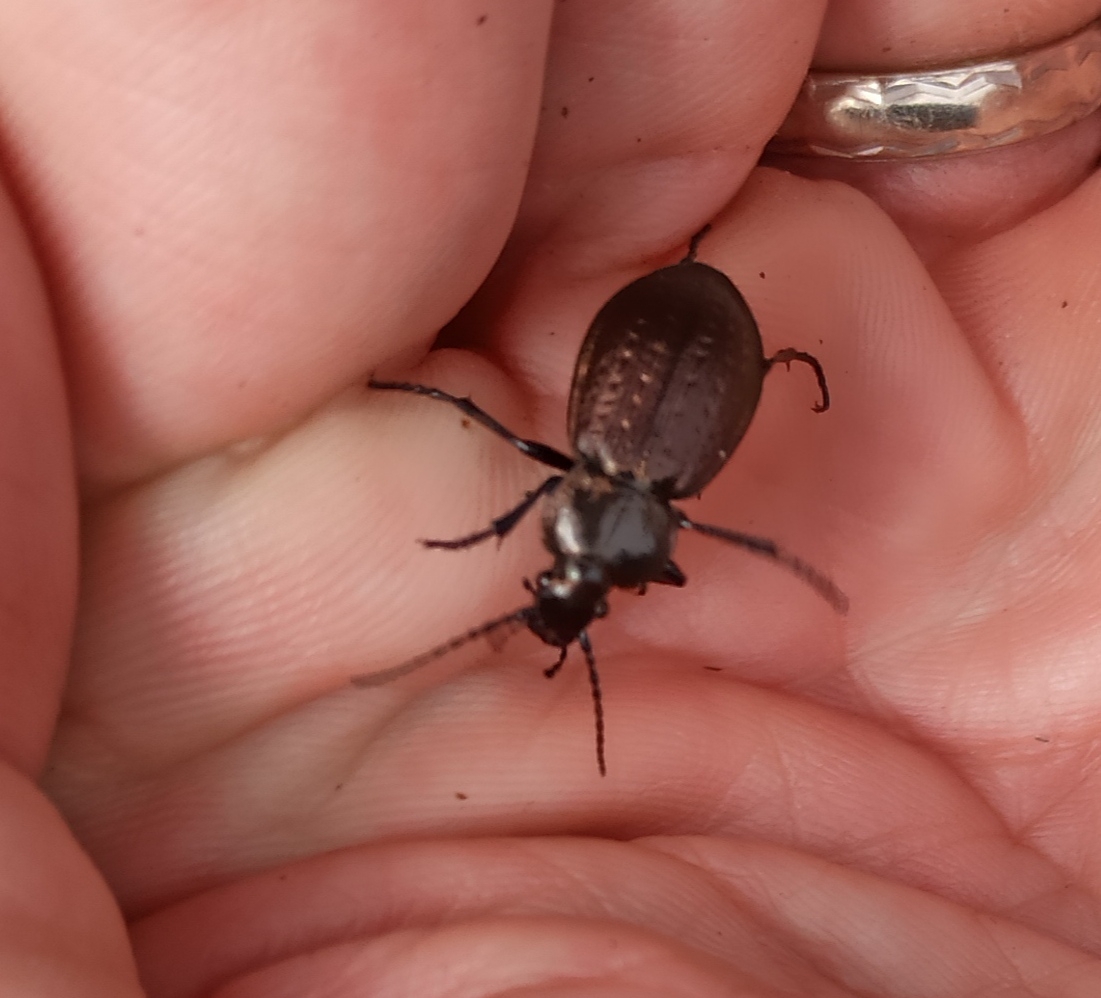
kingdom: Animalia
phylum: Arthropoda
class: Insecta
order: Coleoptera
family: Carabidae
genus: Carabus
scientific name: Carabus arvensis
